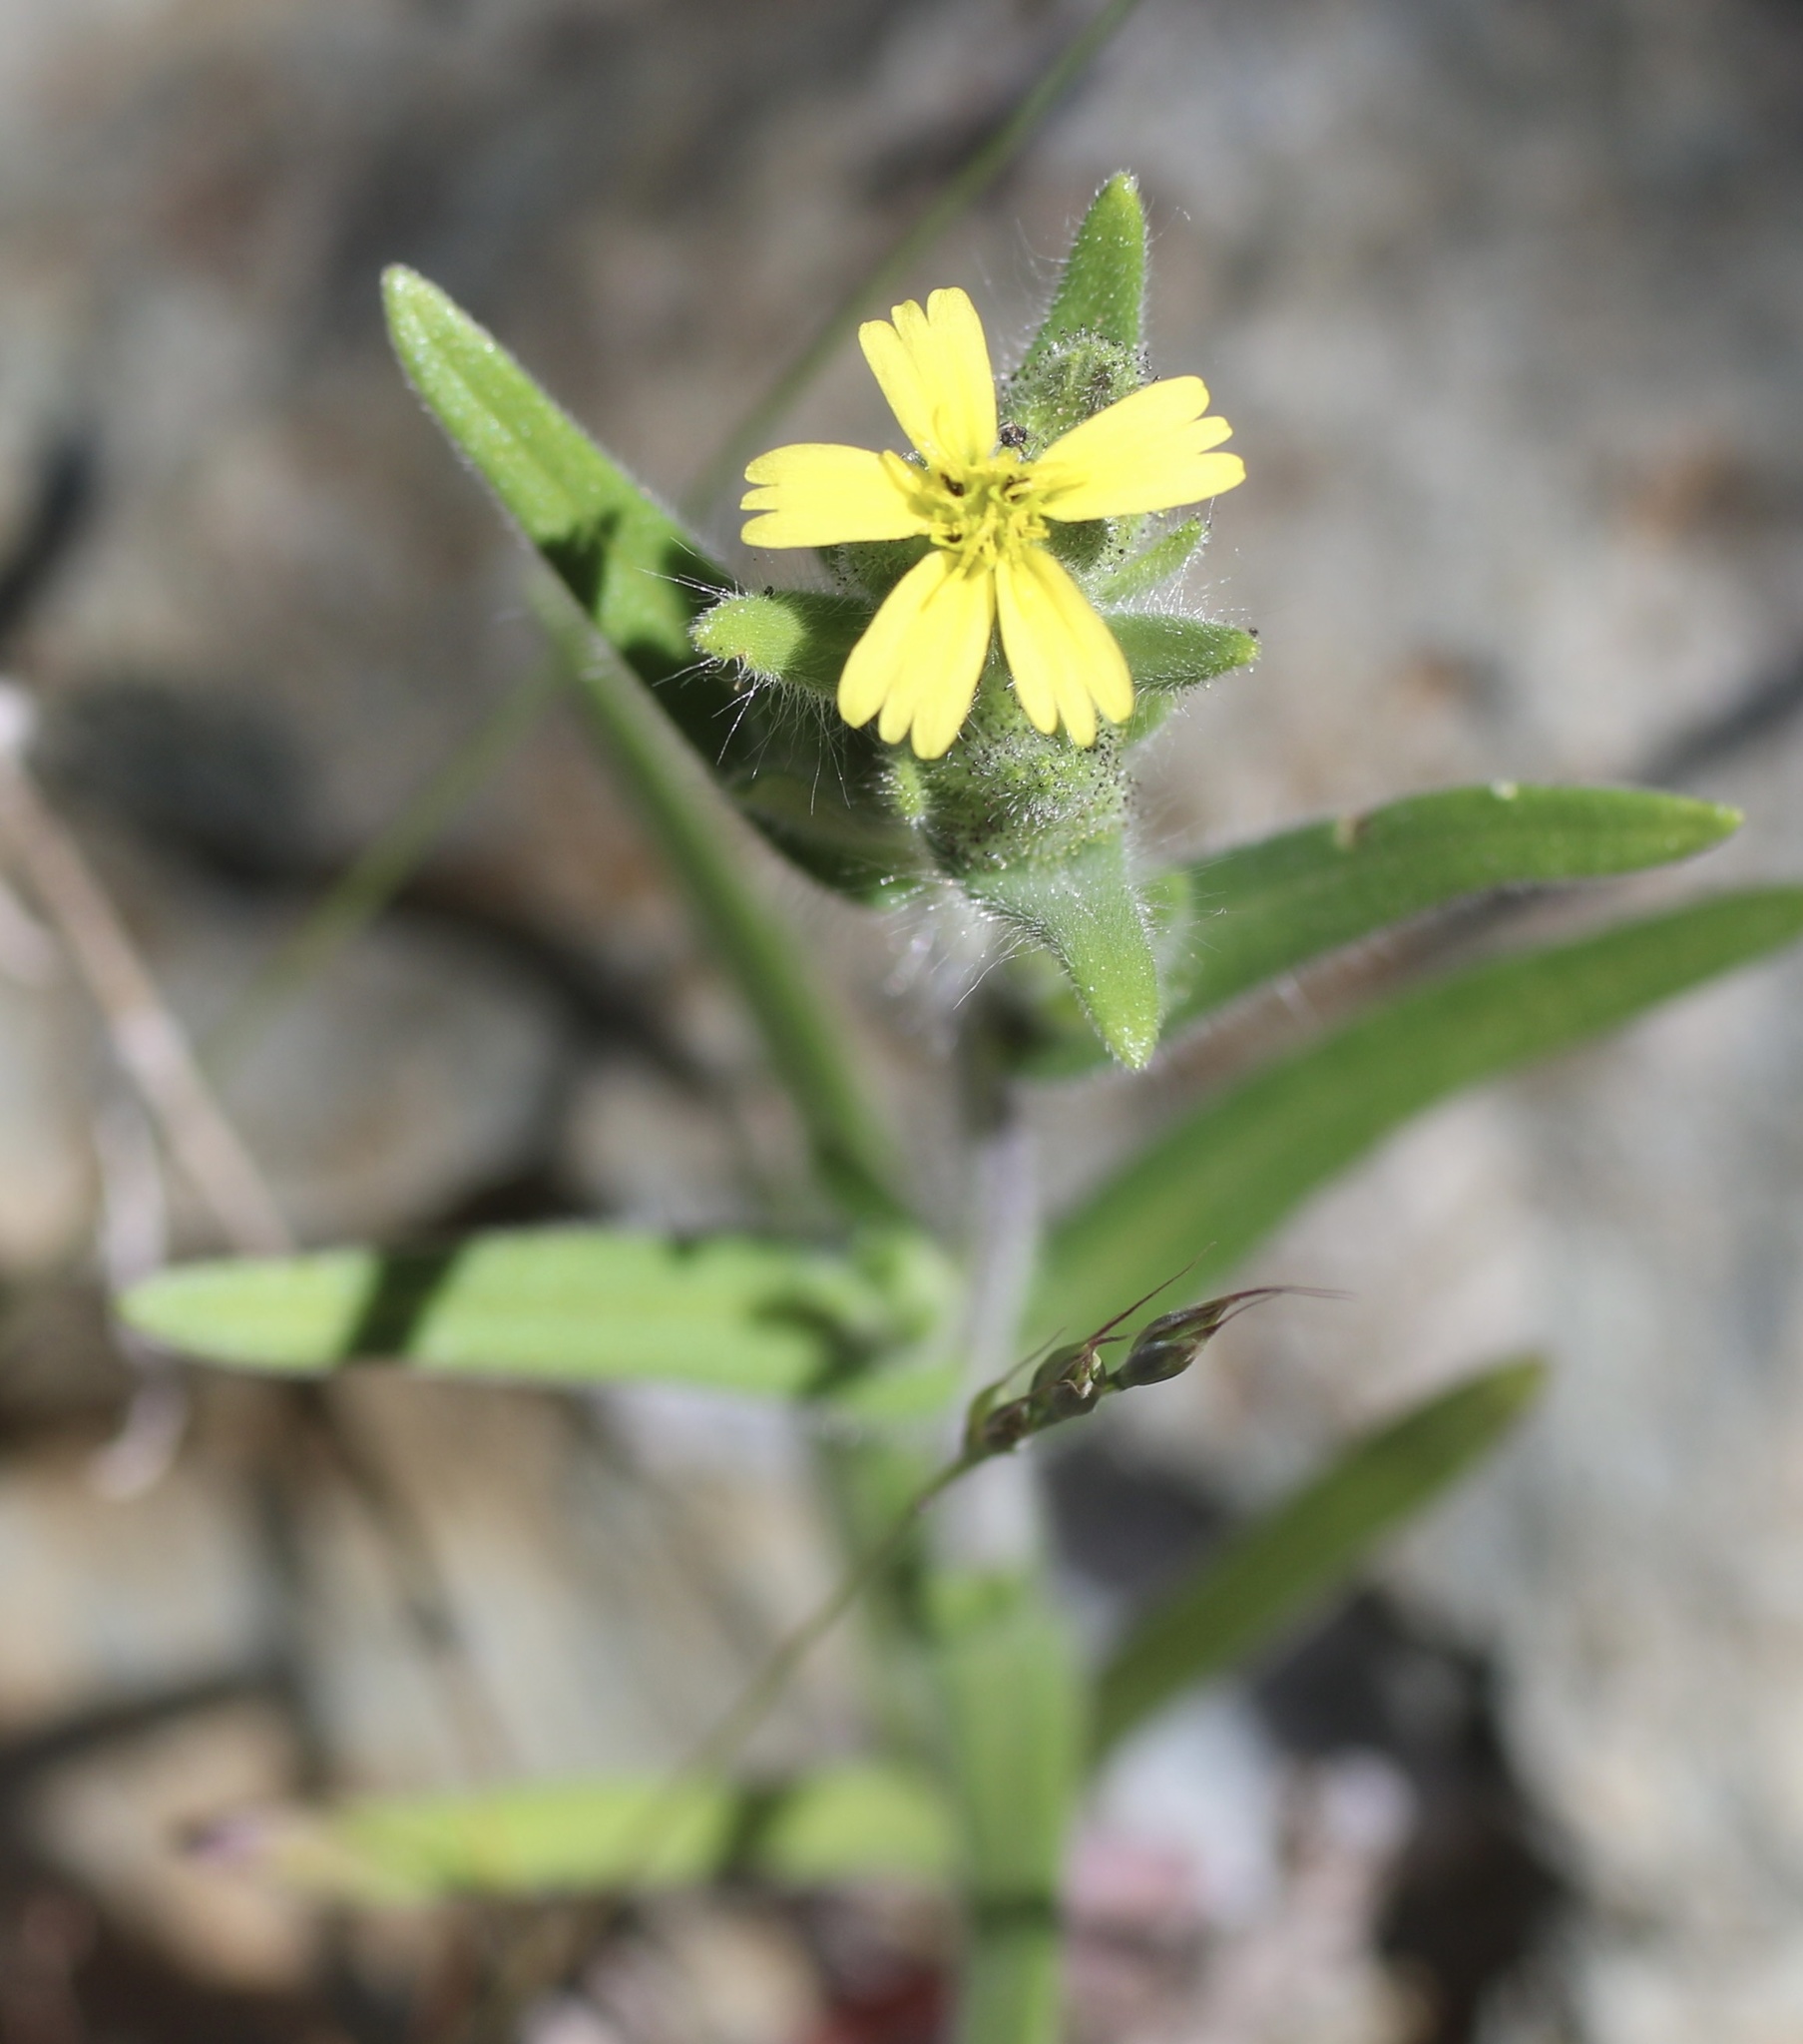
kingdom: Plantae
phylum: Tracheophyta
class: Magnoliopsida
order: Asterales
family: Asteraceae
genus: Madia
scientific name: Madia gracilis
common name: Grassy tarweed
